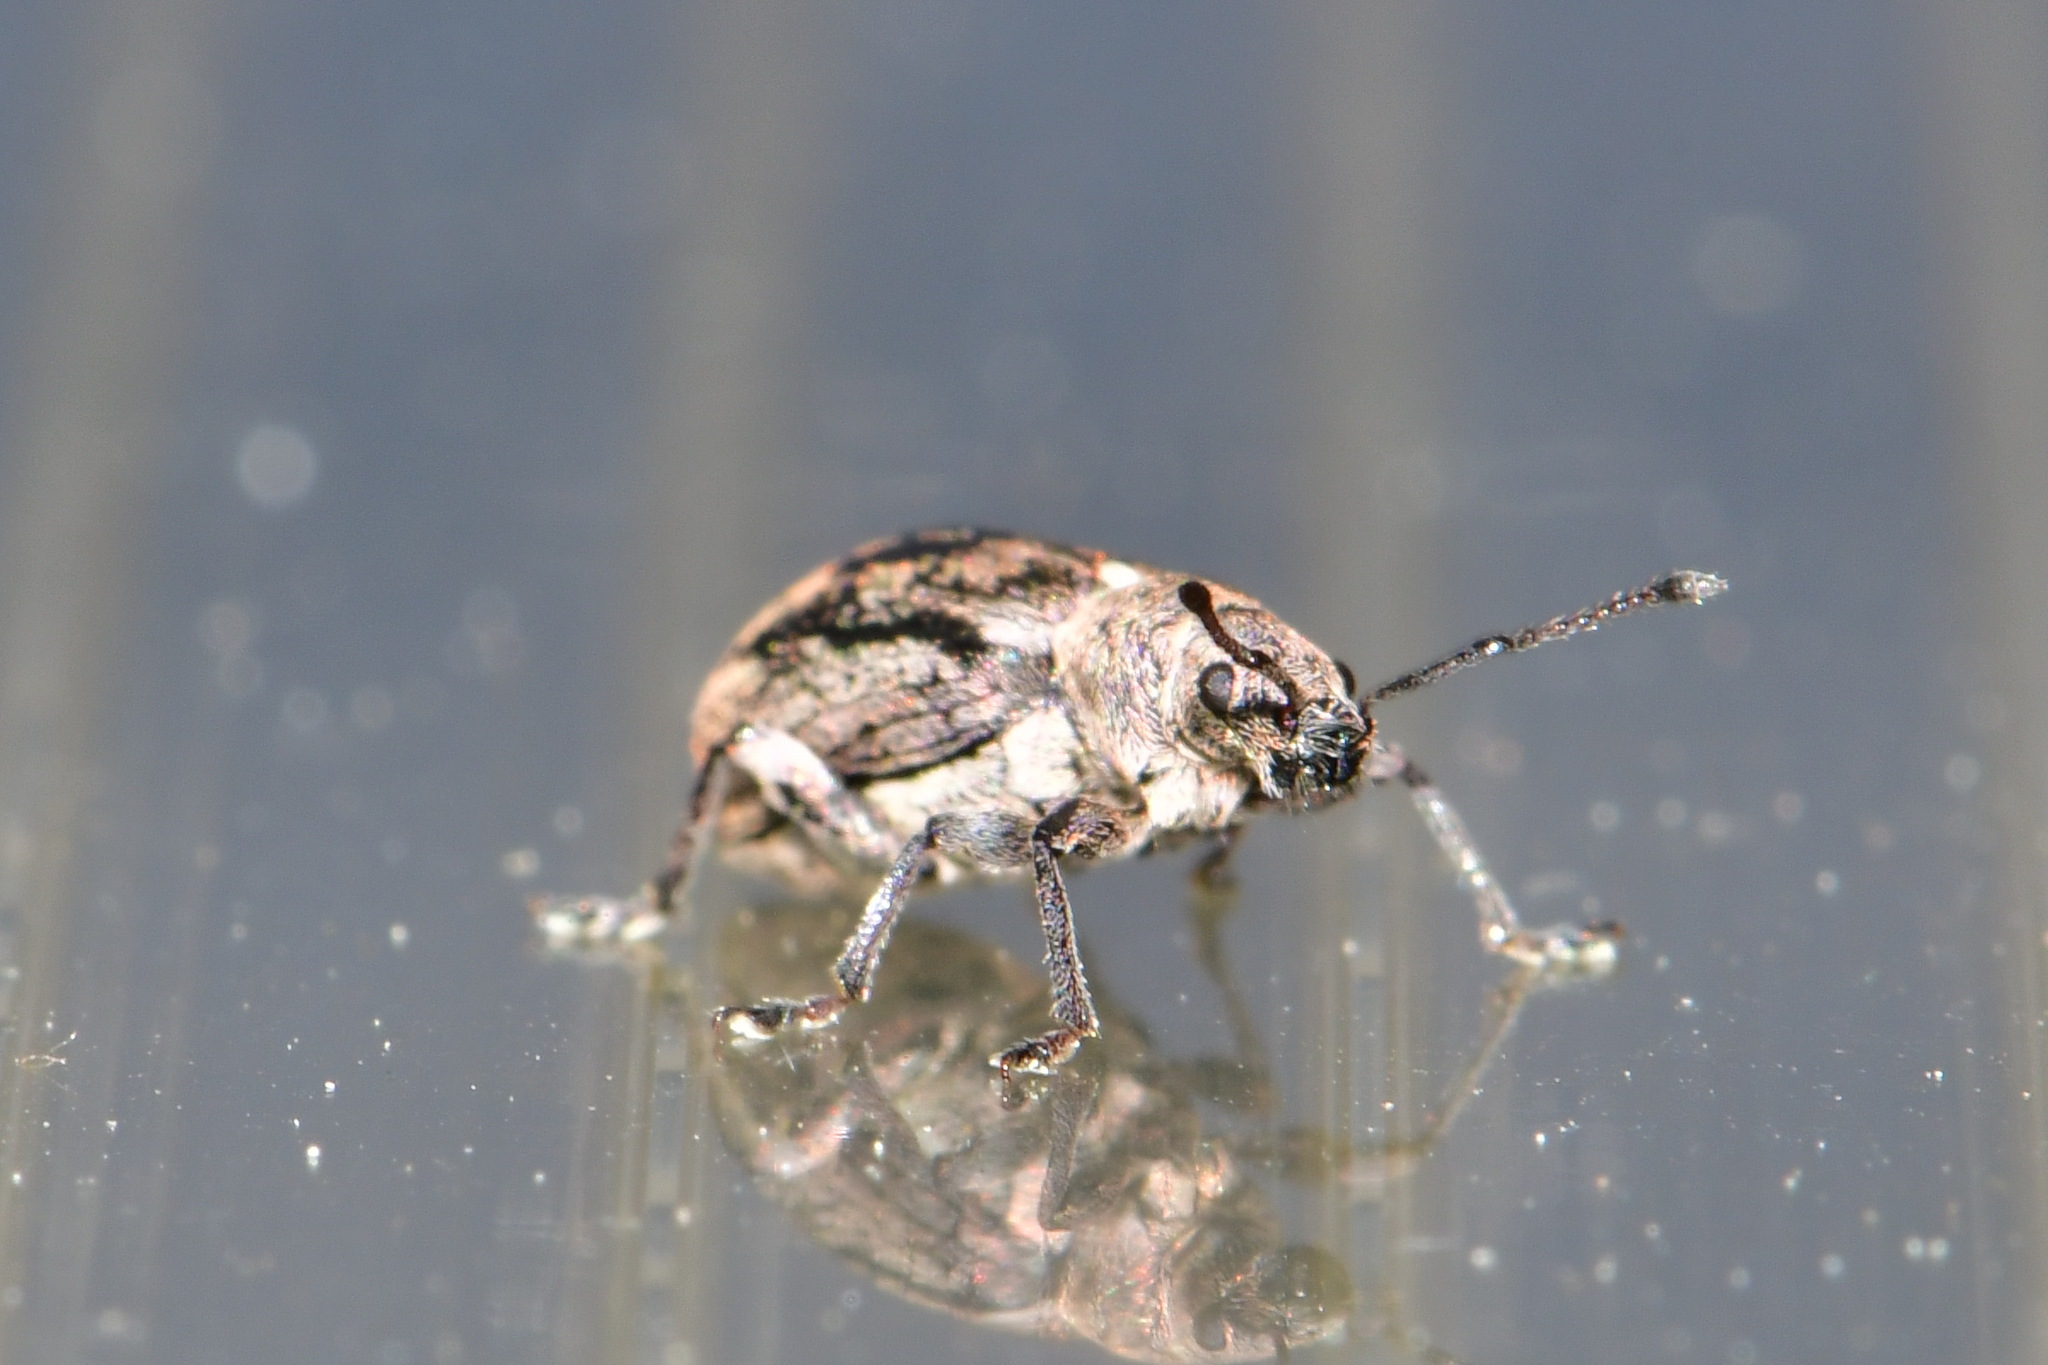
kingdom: Animalia
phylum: Arthropoda
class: Insecta
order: Coleoptera
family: Curculionidae
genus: Phyllobius
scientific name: Phyllobius pyri
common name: Common leaf weevil
